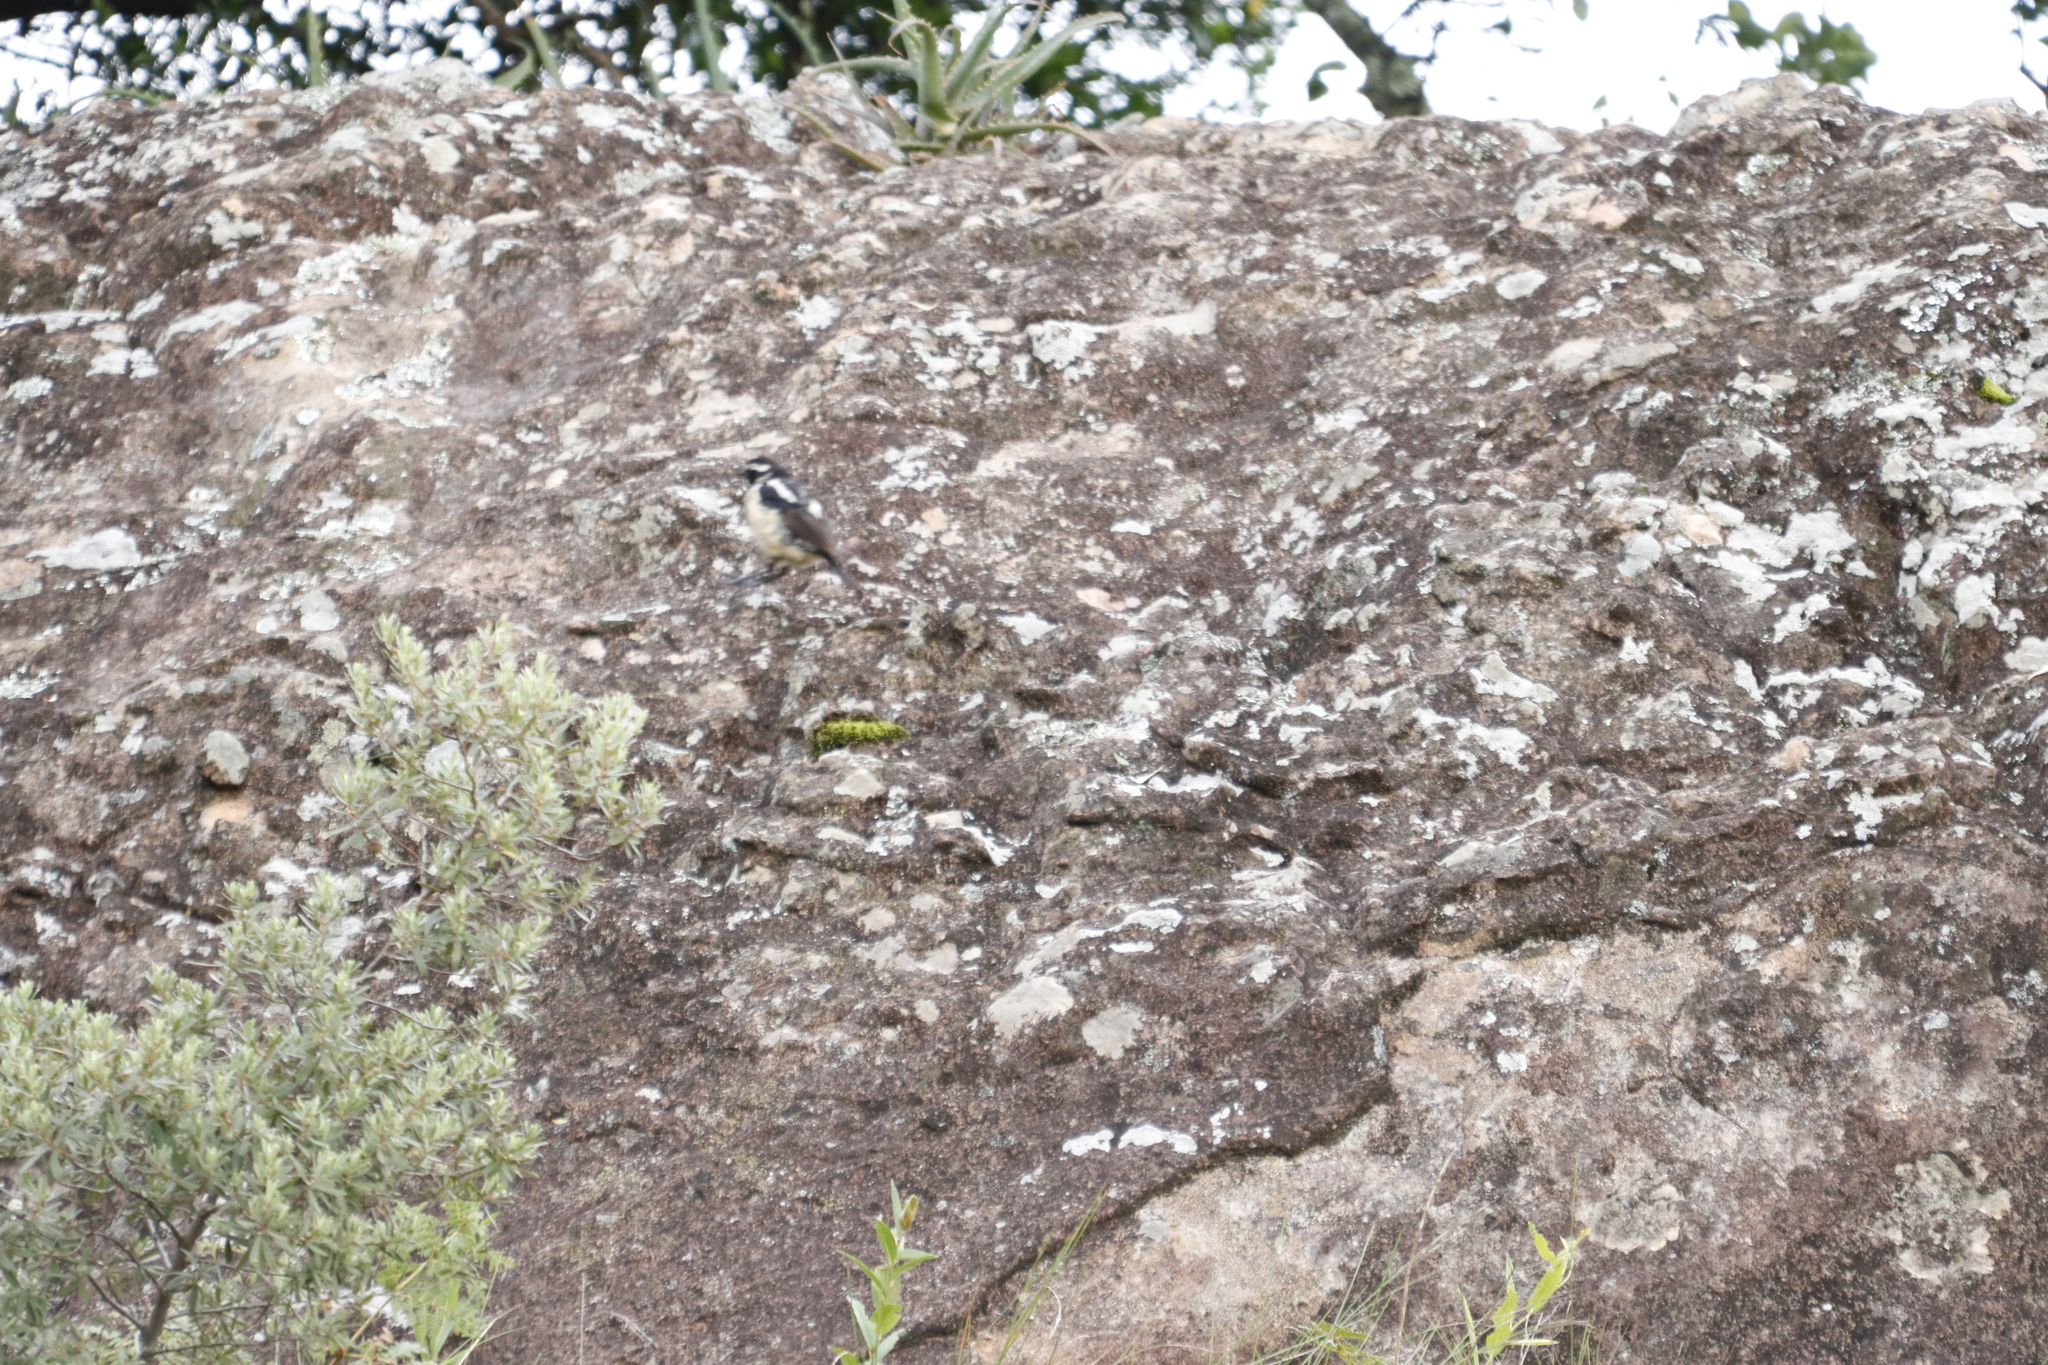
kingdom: Animalia
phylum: Chordata
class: Aves
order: Passeriformes
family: Muscicapidae
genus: Campicoloides
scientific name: Campicoloides bifasciatus
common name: Buff-streaked chat
